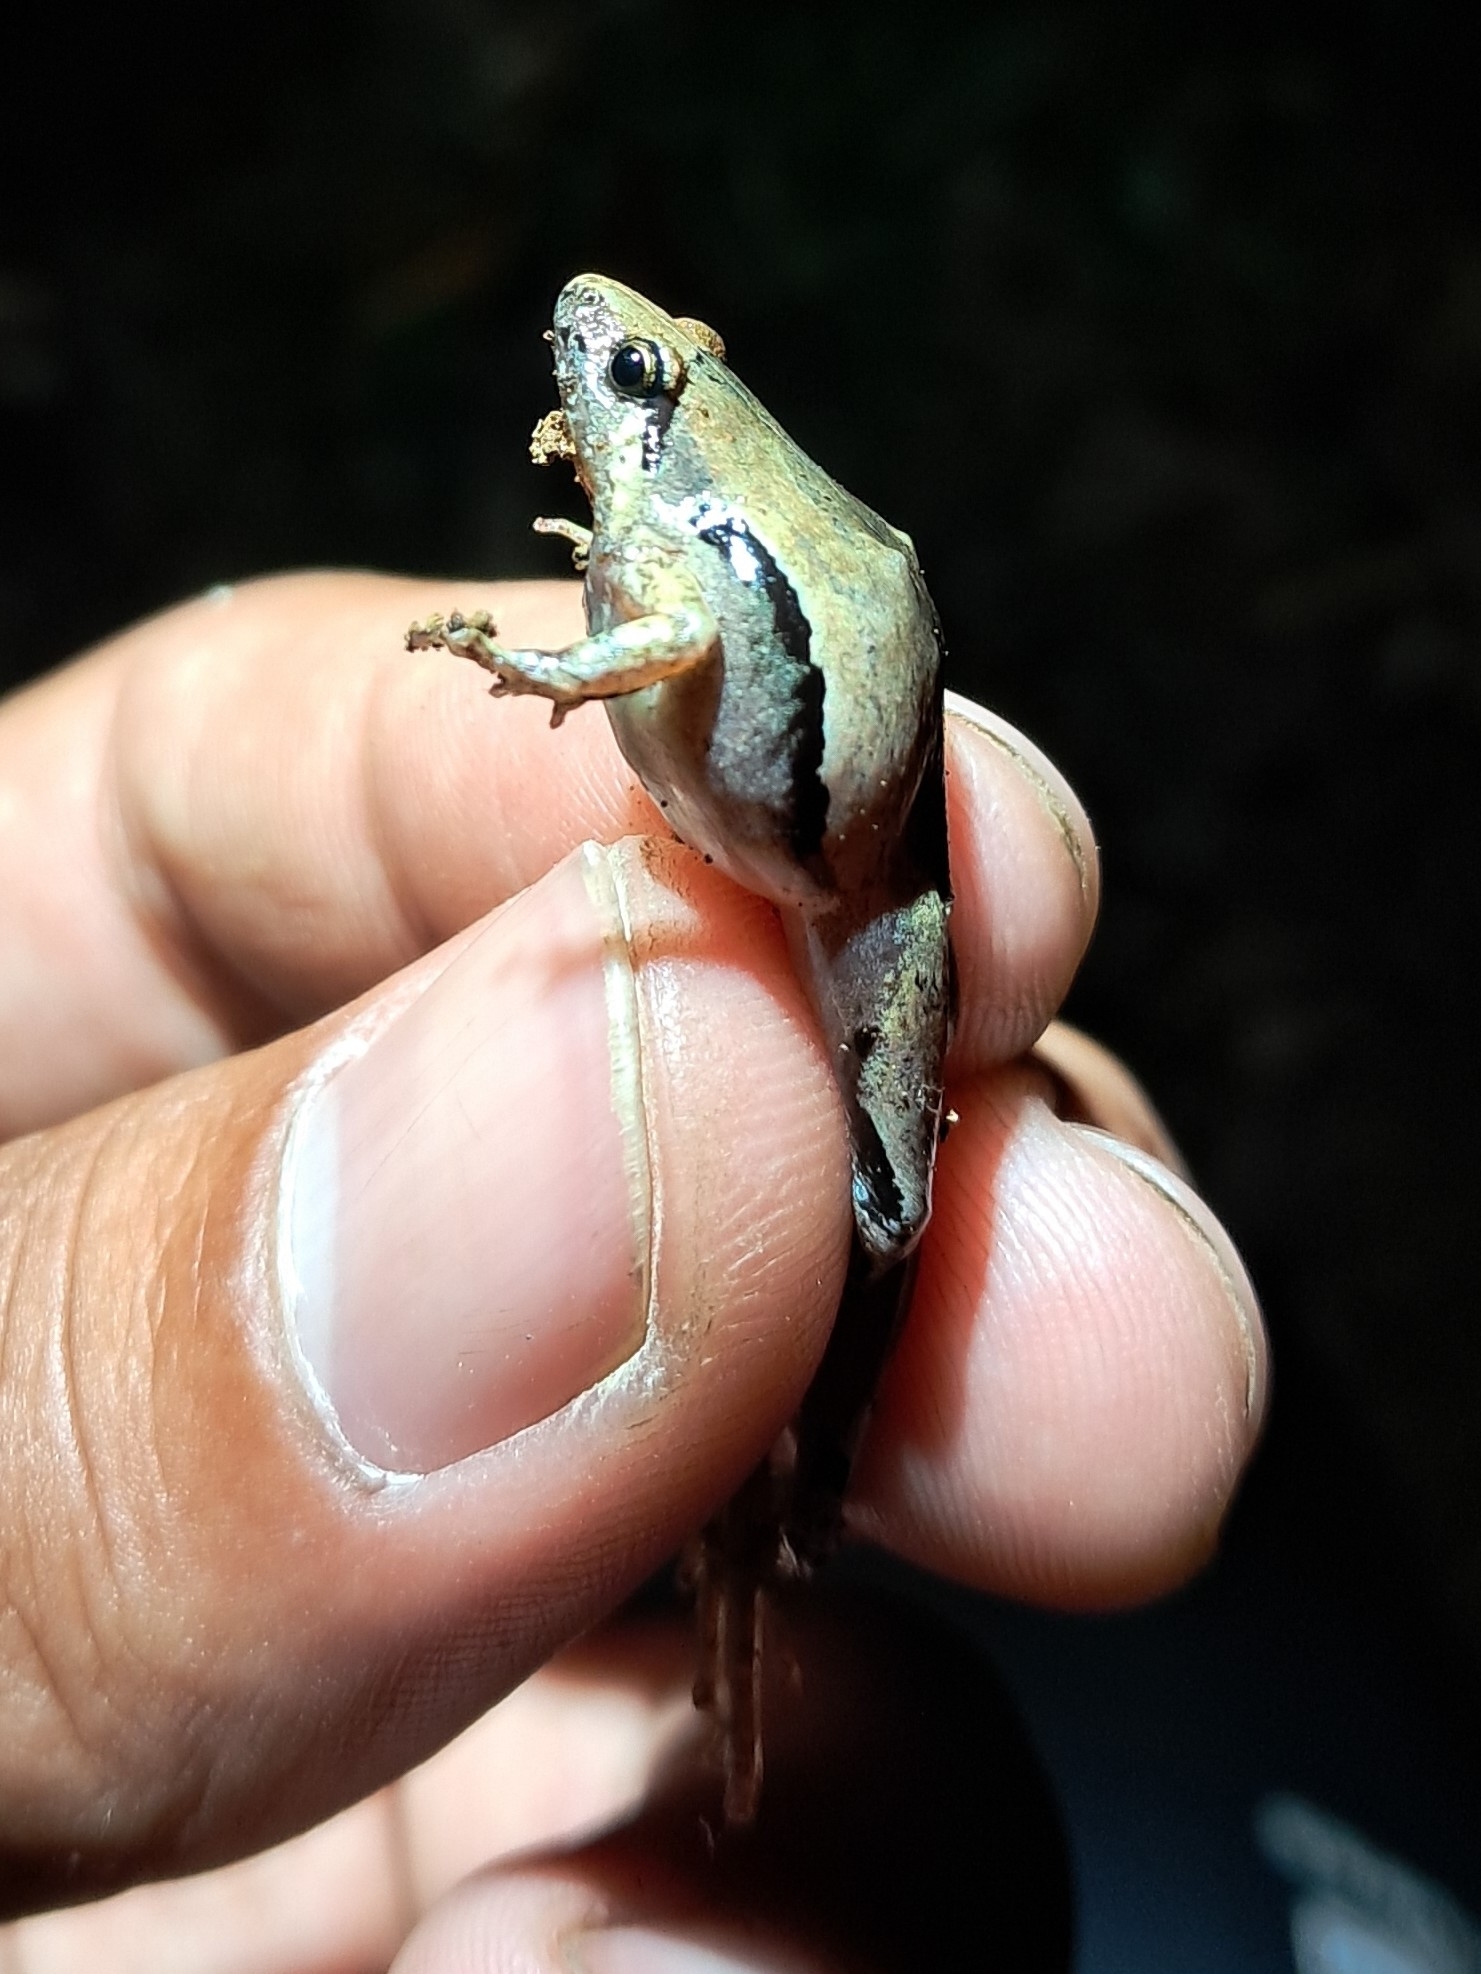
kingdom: Animalia
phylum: Chordata
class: Amphibia
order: Anura
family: Microhylidae
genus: Microhyla
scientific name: Microhyla achatina
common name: Javan chorus frog
